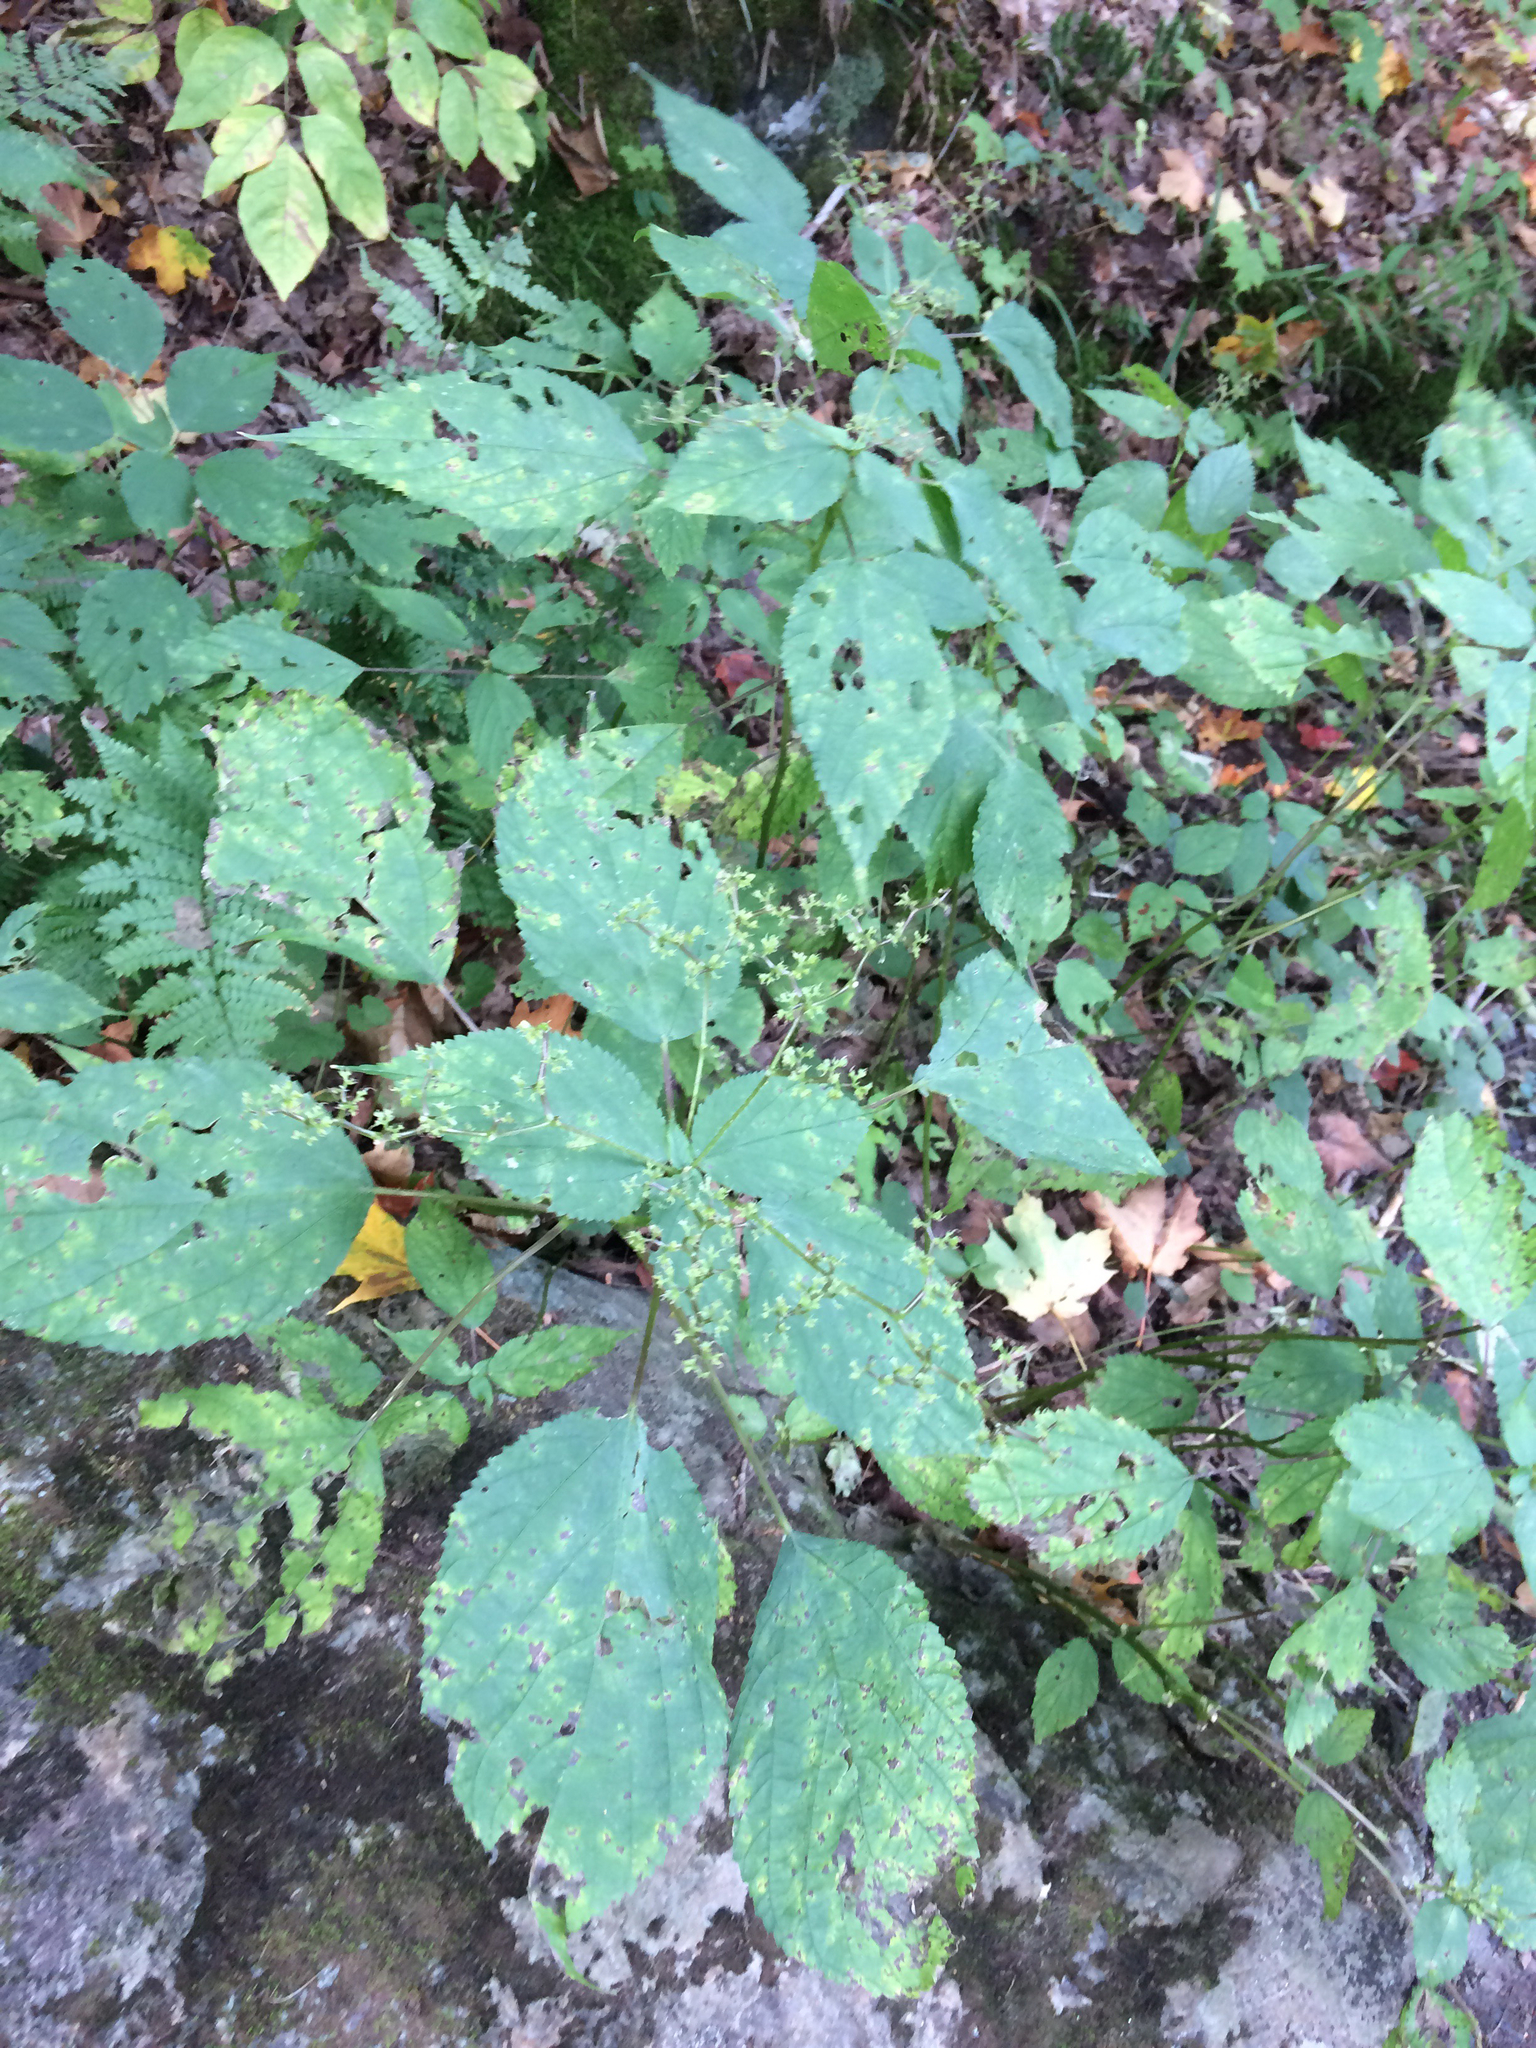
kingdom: Plantae
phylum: Tracheophyta
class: Magnoliopsida
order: Rosales
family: Urticaceae
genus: Laportea
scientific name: Laportea canadensis
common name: Canada nettle
